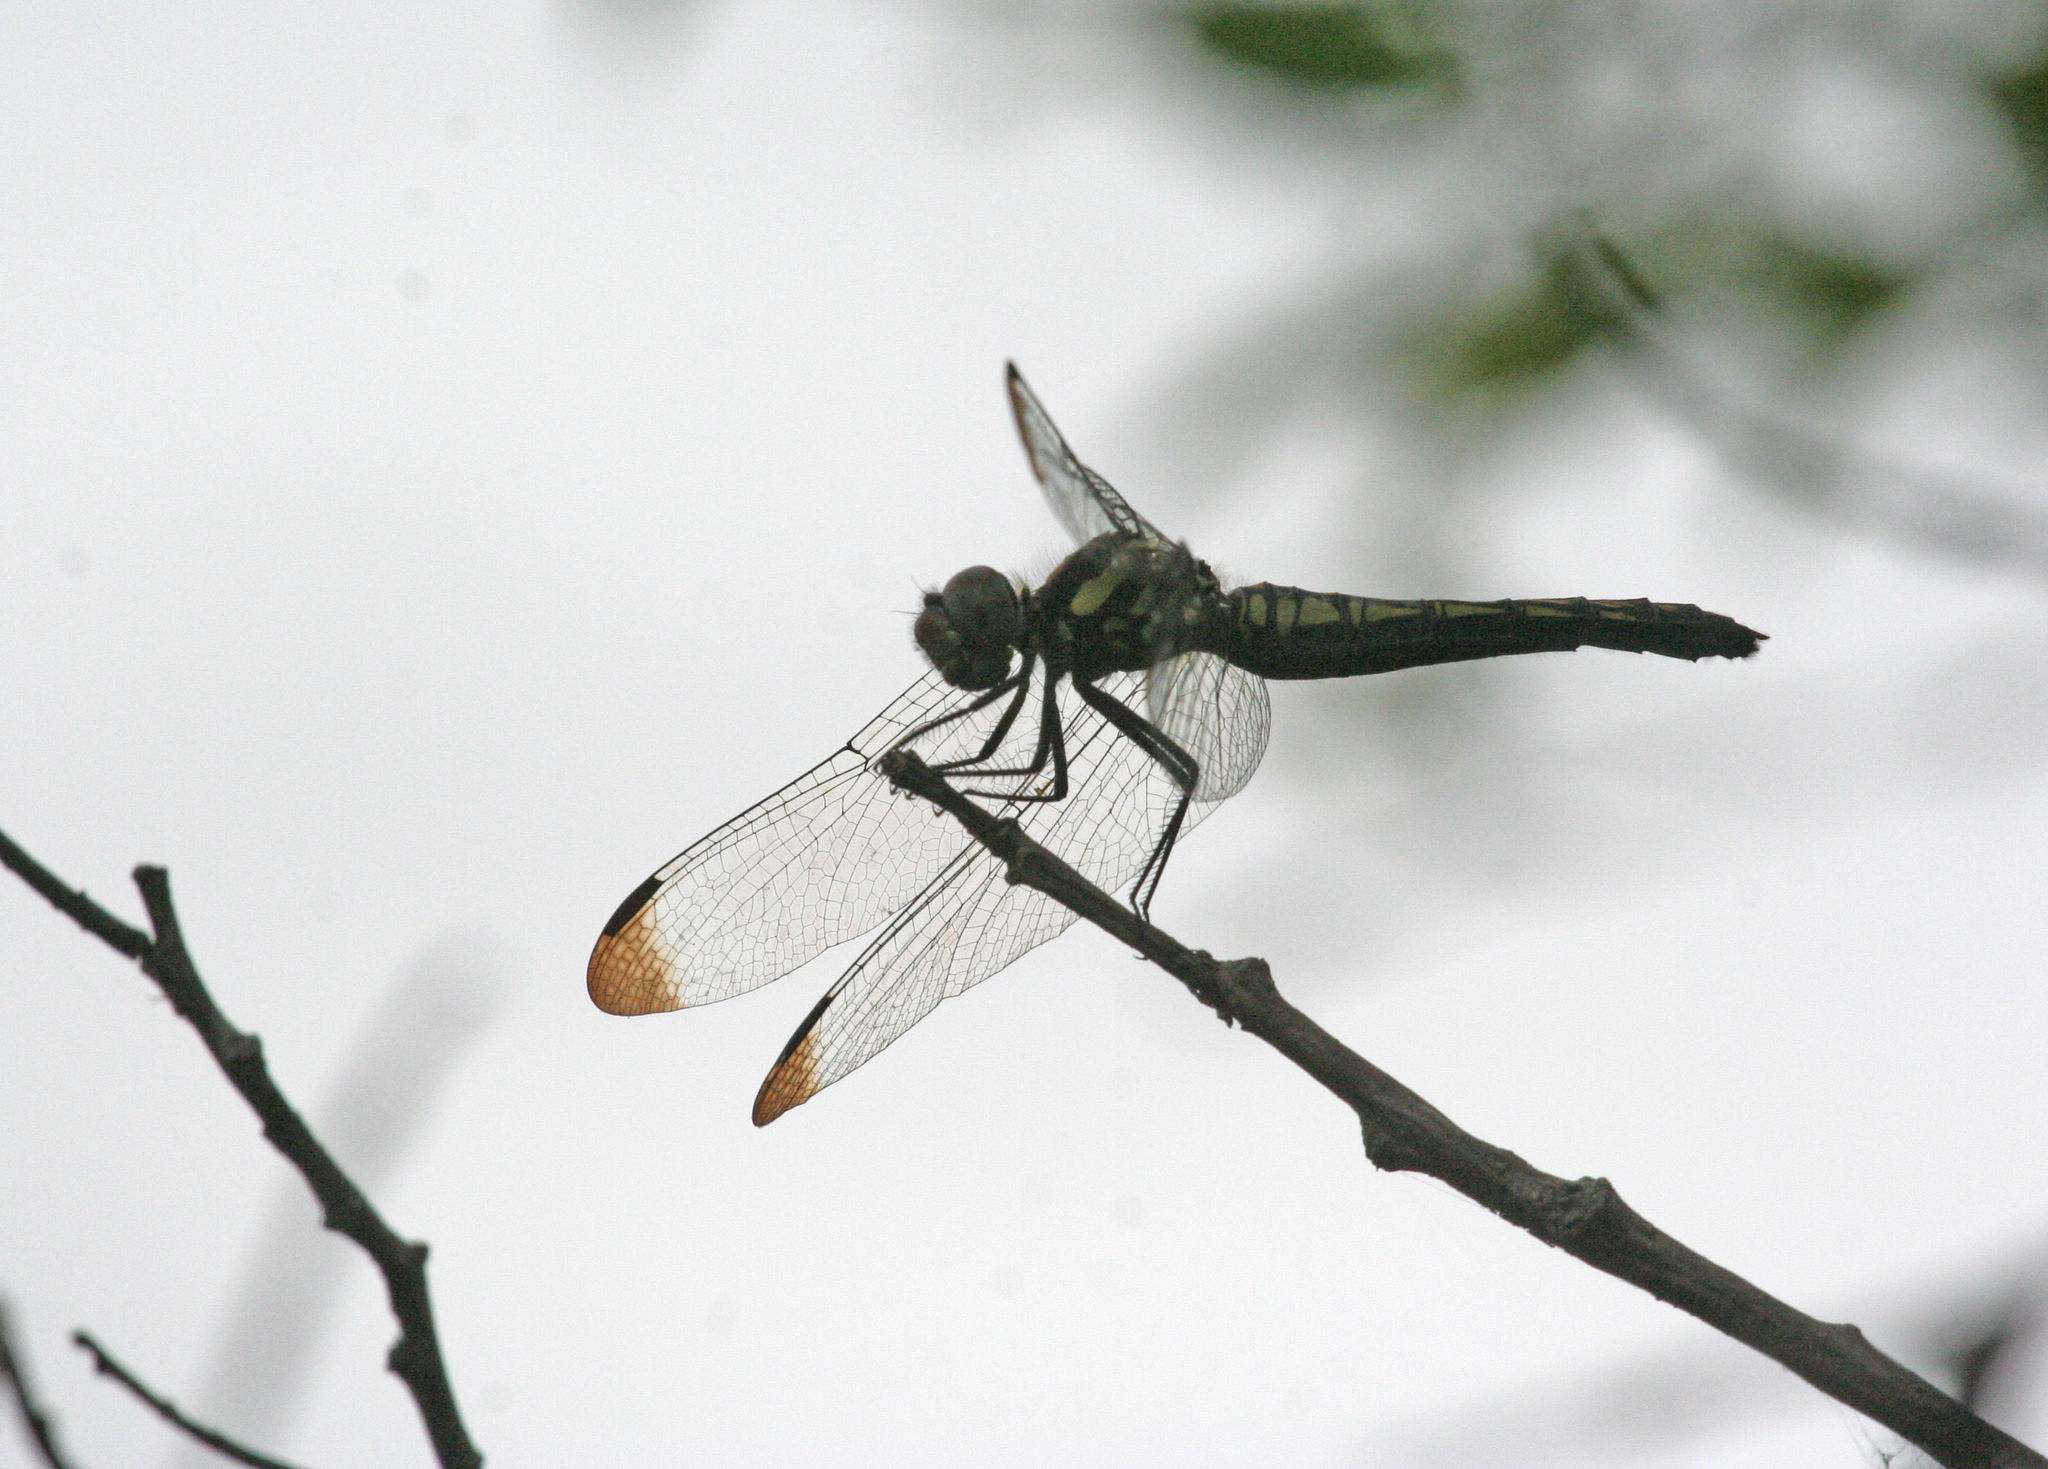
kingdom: Animalia
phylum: Arthropoda
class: Insecta
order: Odonata
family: Libellulidae
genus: Sympetrum
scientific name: Sympetrum risi
